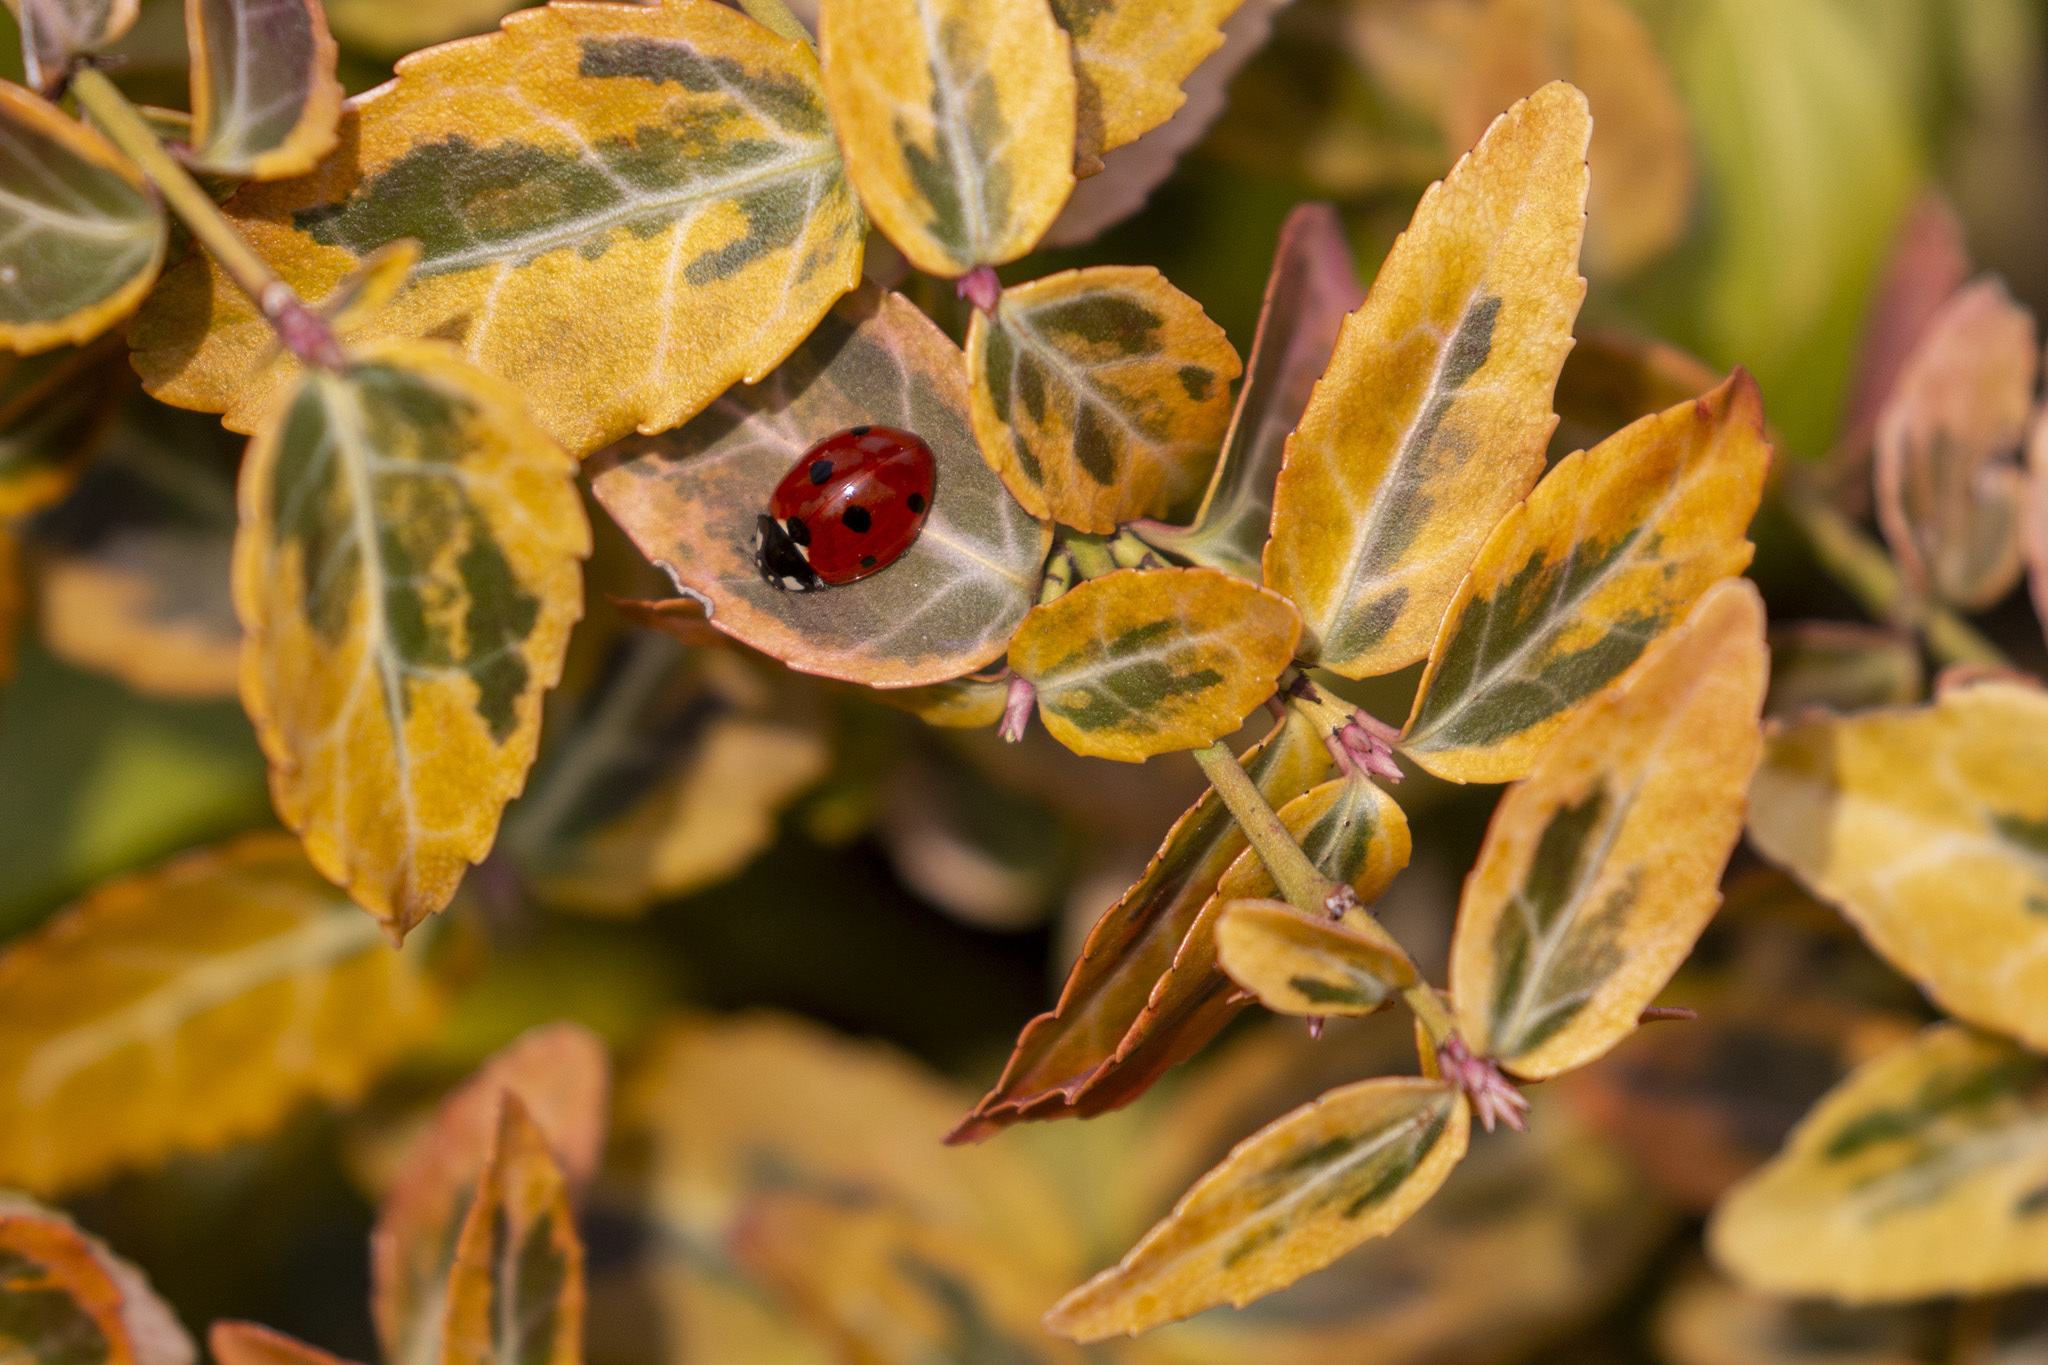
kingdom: Animalia
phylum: Arthropoda
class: Insecta
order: Coleoptera
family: Coccinellidae
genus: Coccinella
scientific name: Coccinella septempunctata
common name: Sevenspotted lady beetle
